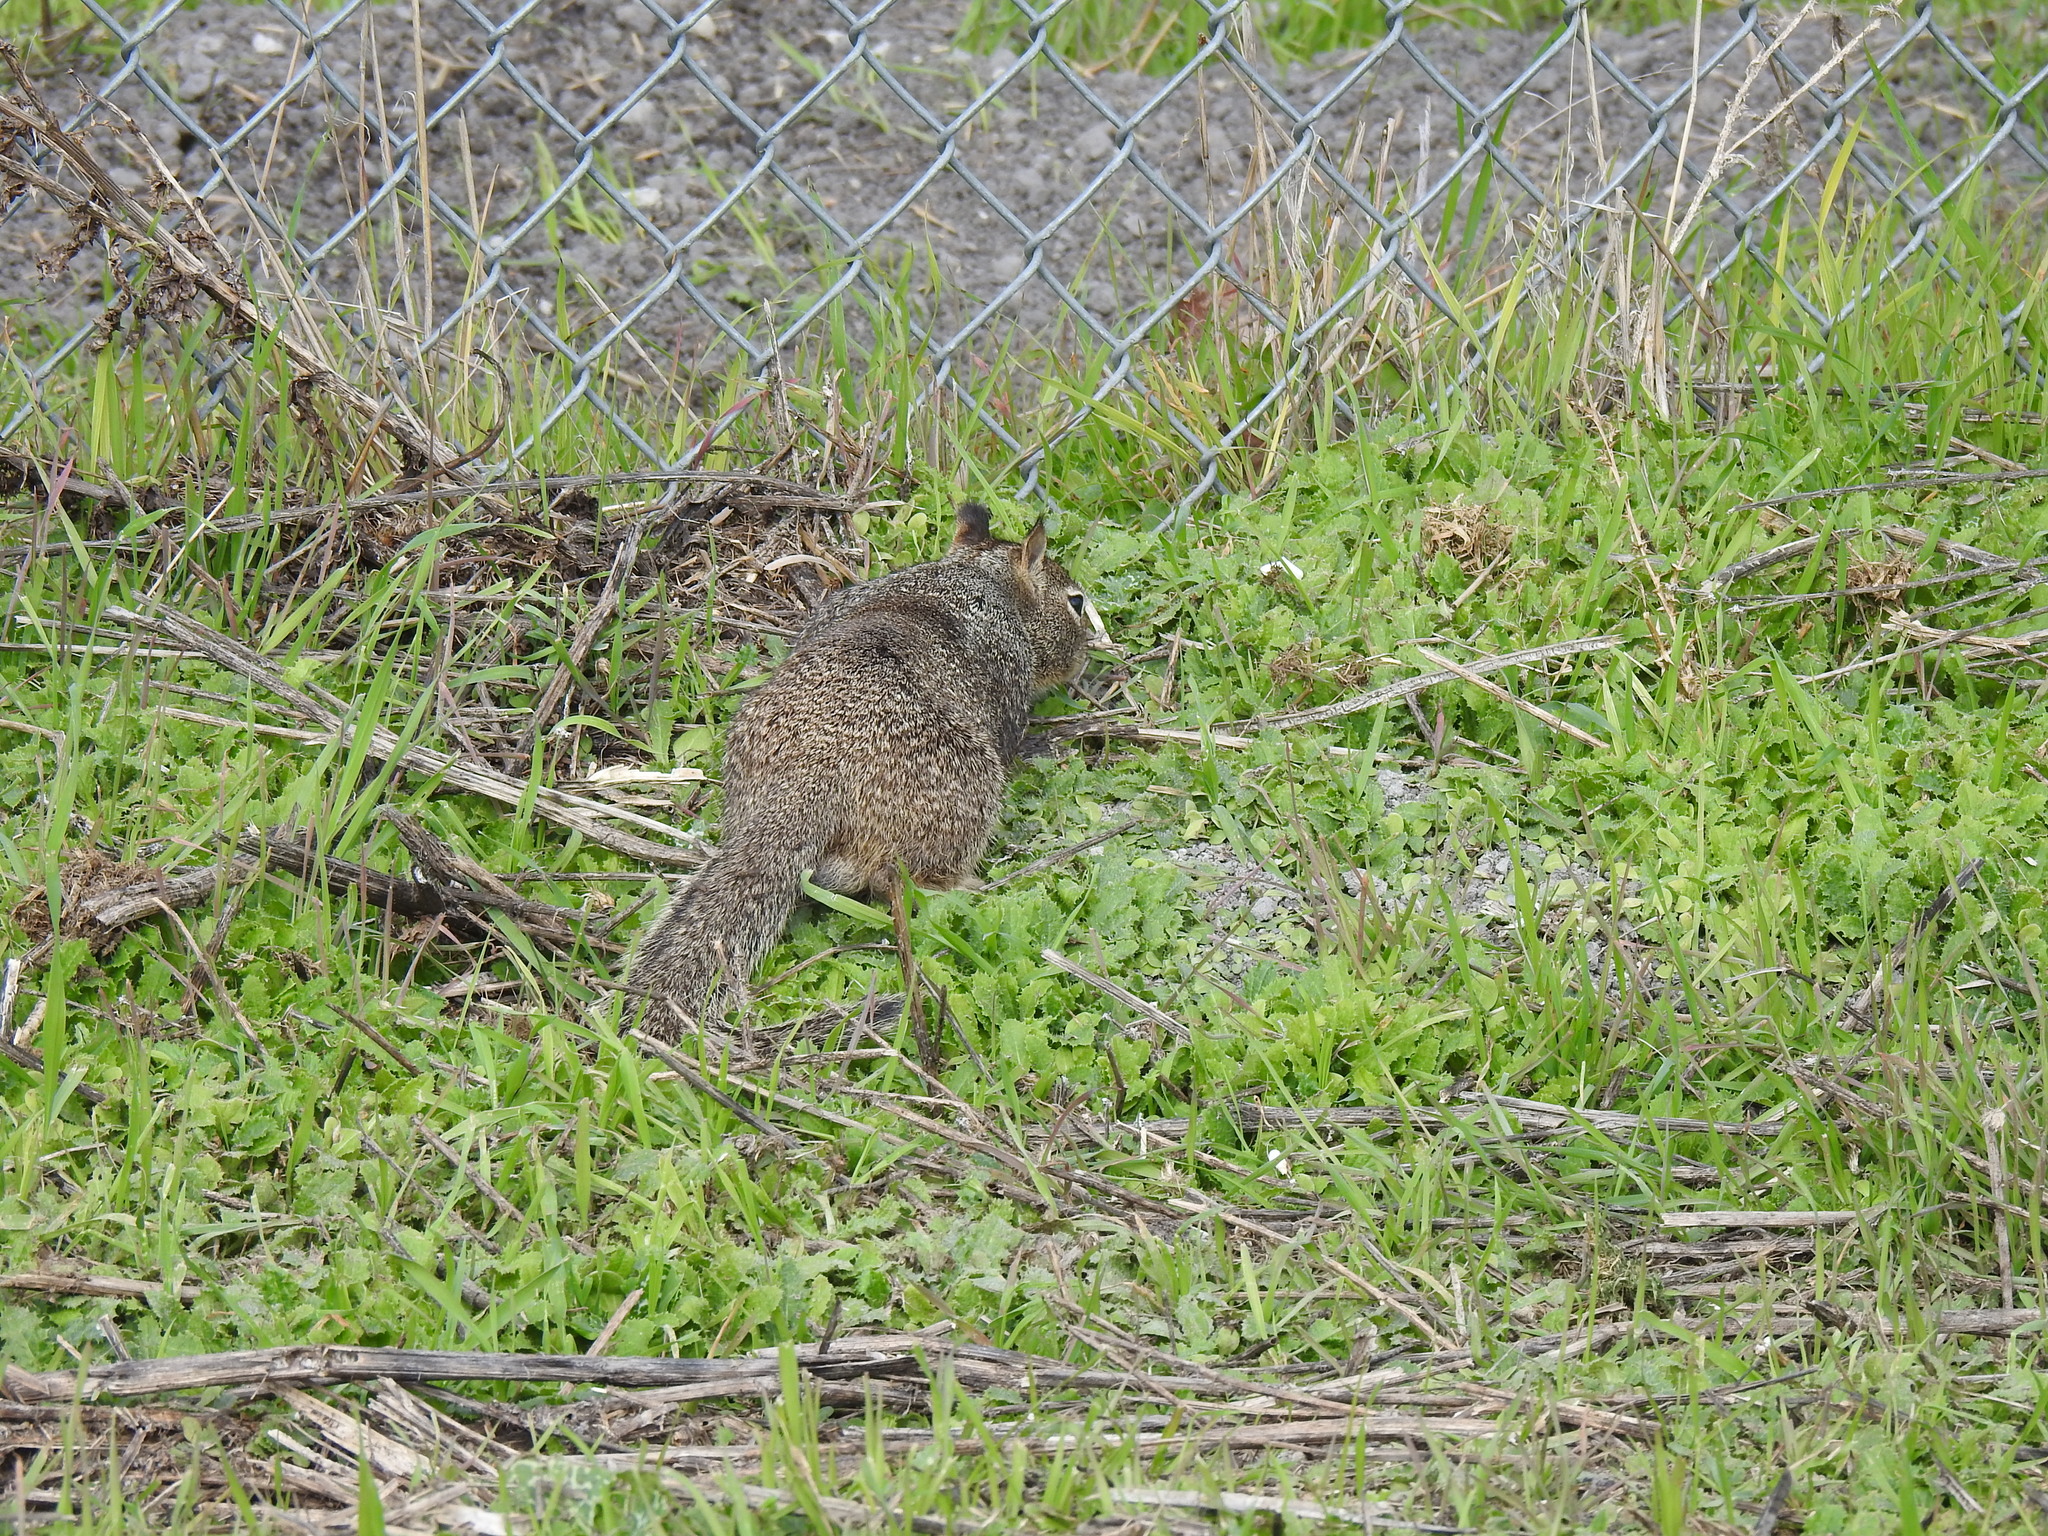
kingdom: Animalia
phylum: Chordata
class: Mammalia
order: Rodentia
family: Sciuridae
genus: Otospermophilus
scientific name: Otospermophilus beecheyi
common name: California ground squirrel
